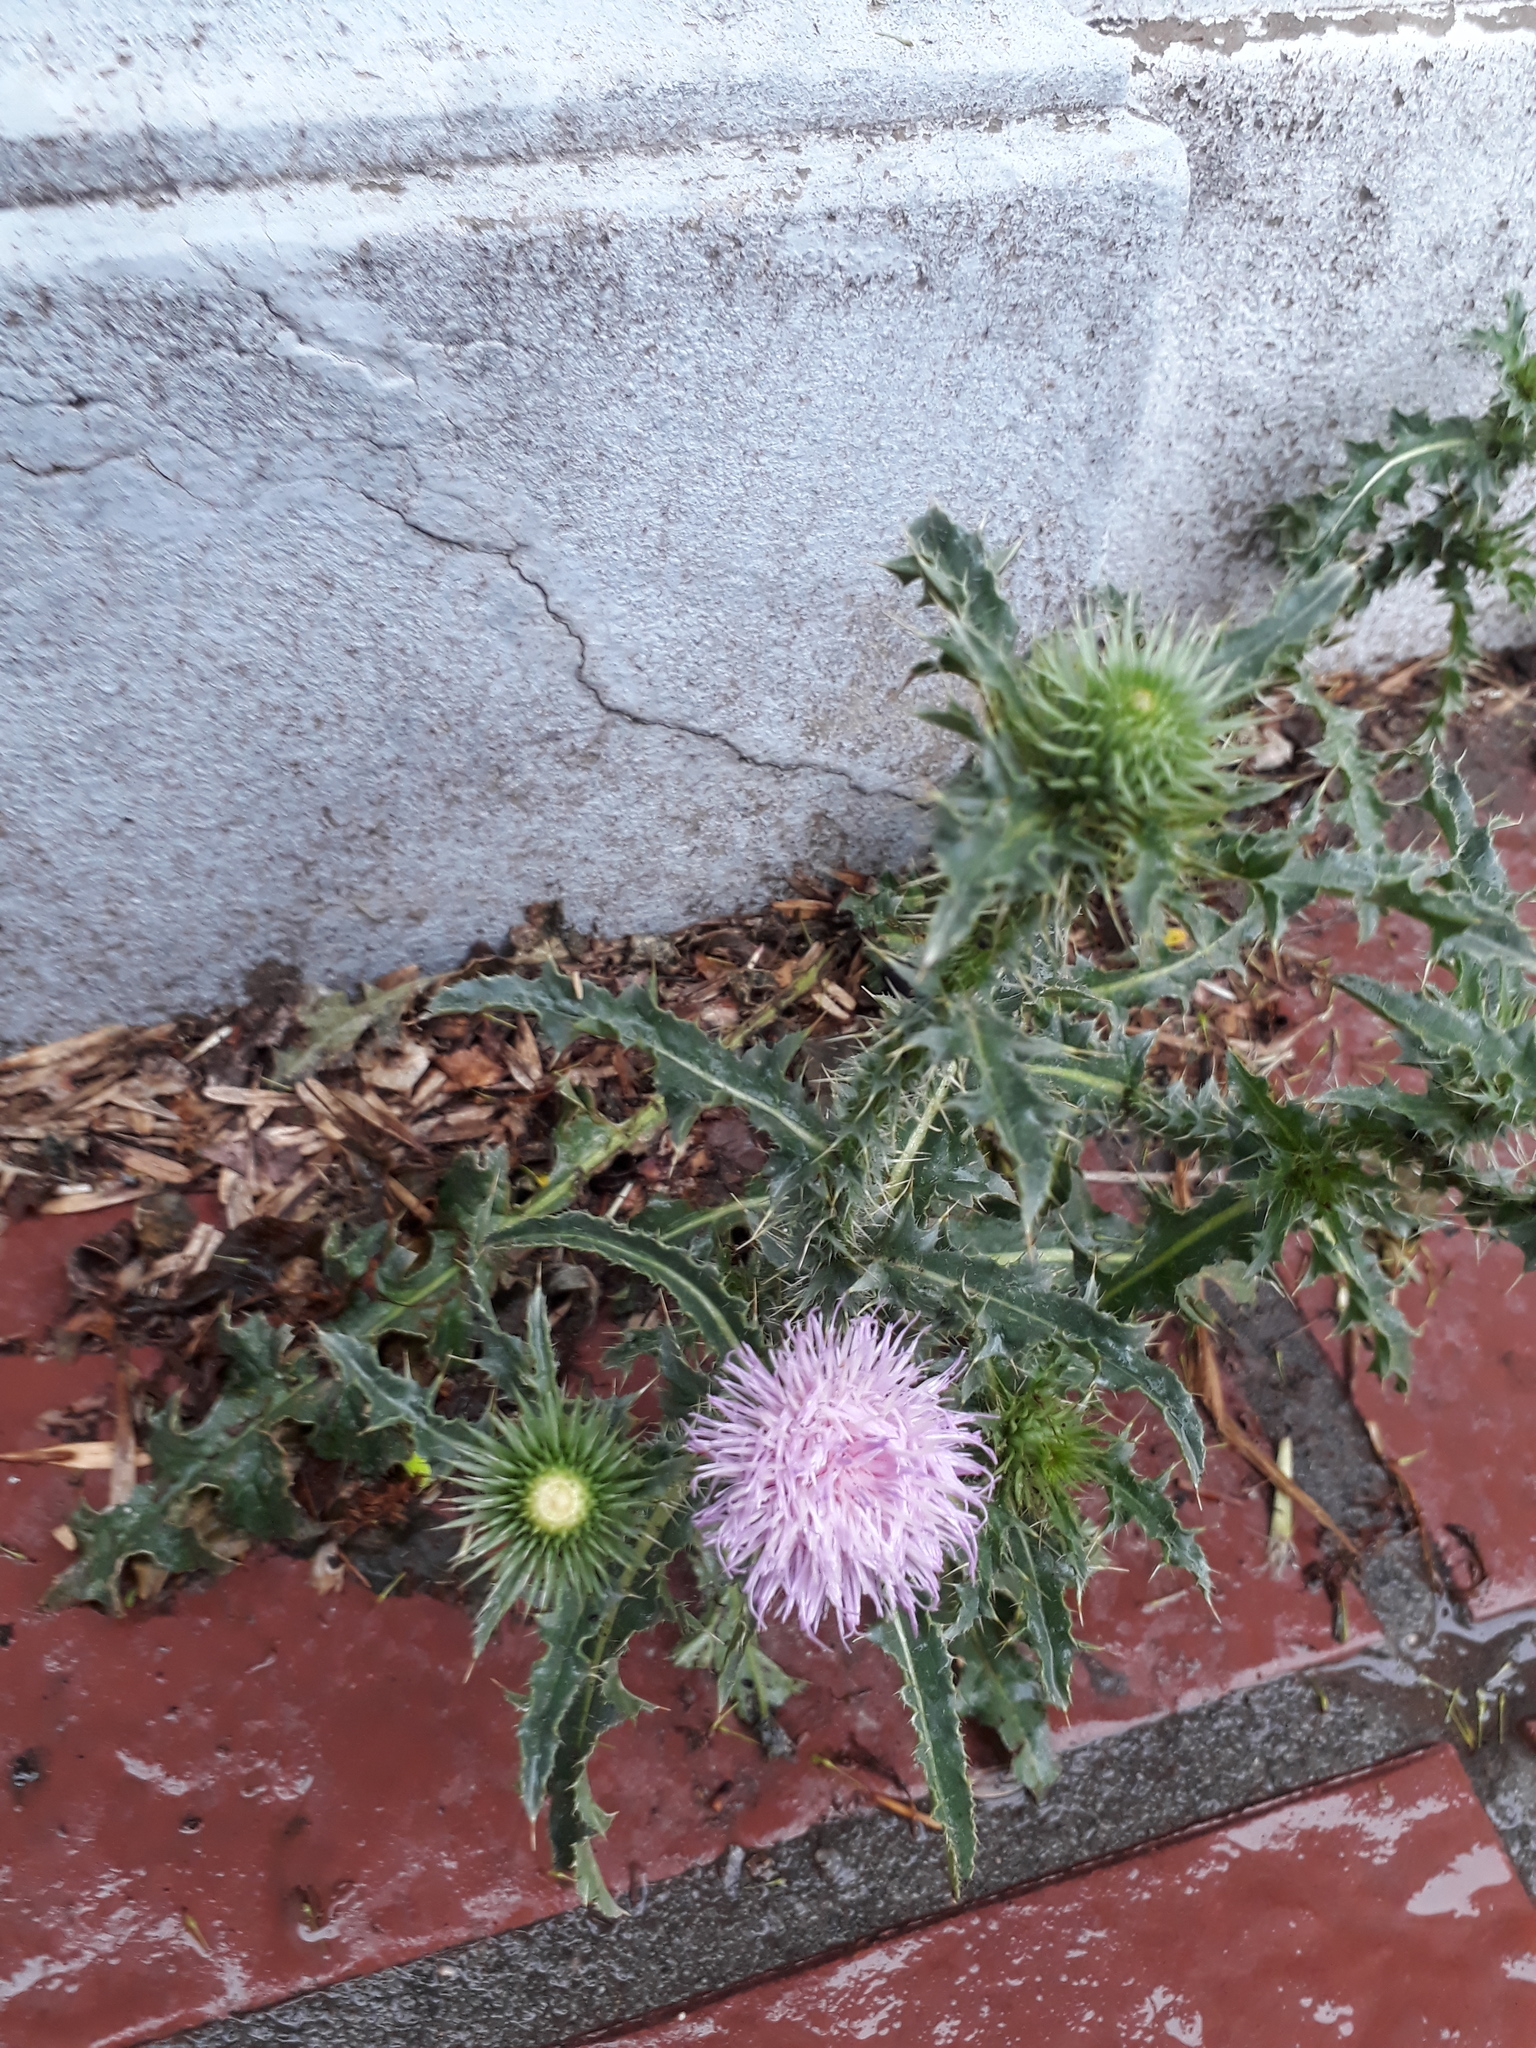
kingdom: Plantae
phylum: Tracheophyta
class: Magnoliopsida
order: Asterales
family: Asteraceae
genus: Carduus
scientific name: Carduus acanthoides
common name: Plumeless thistle
